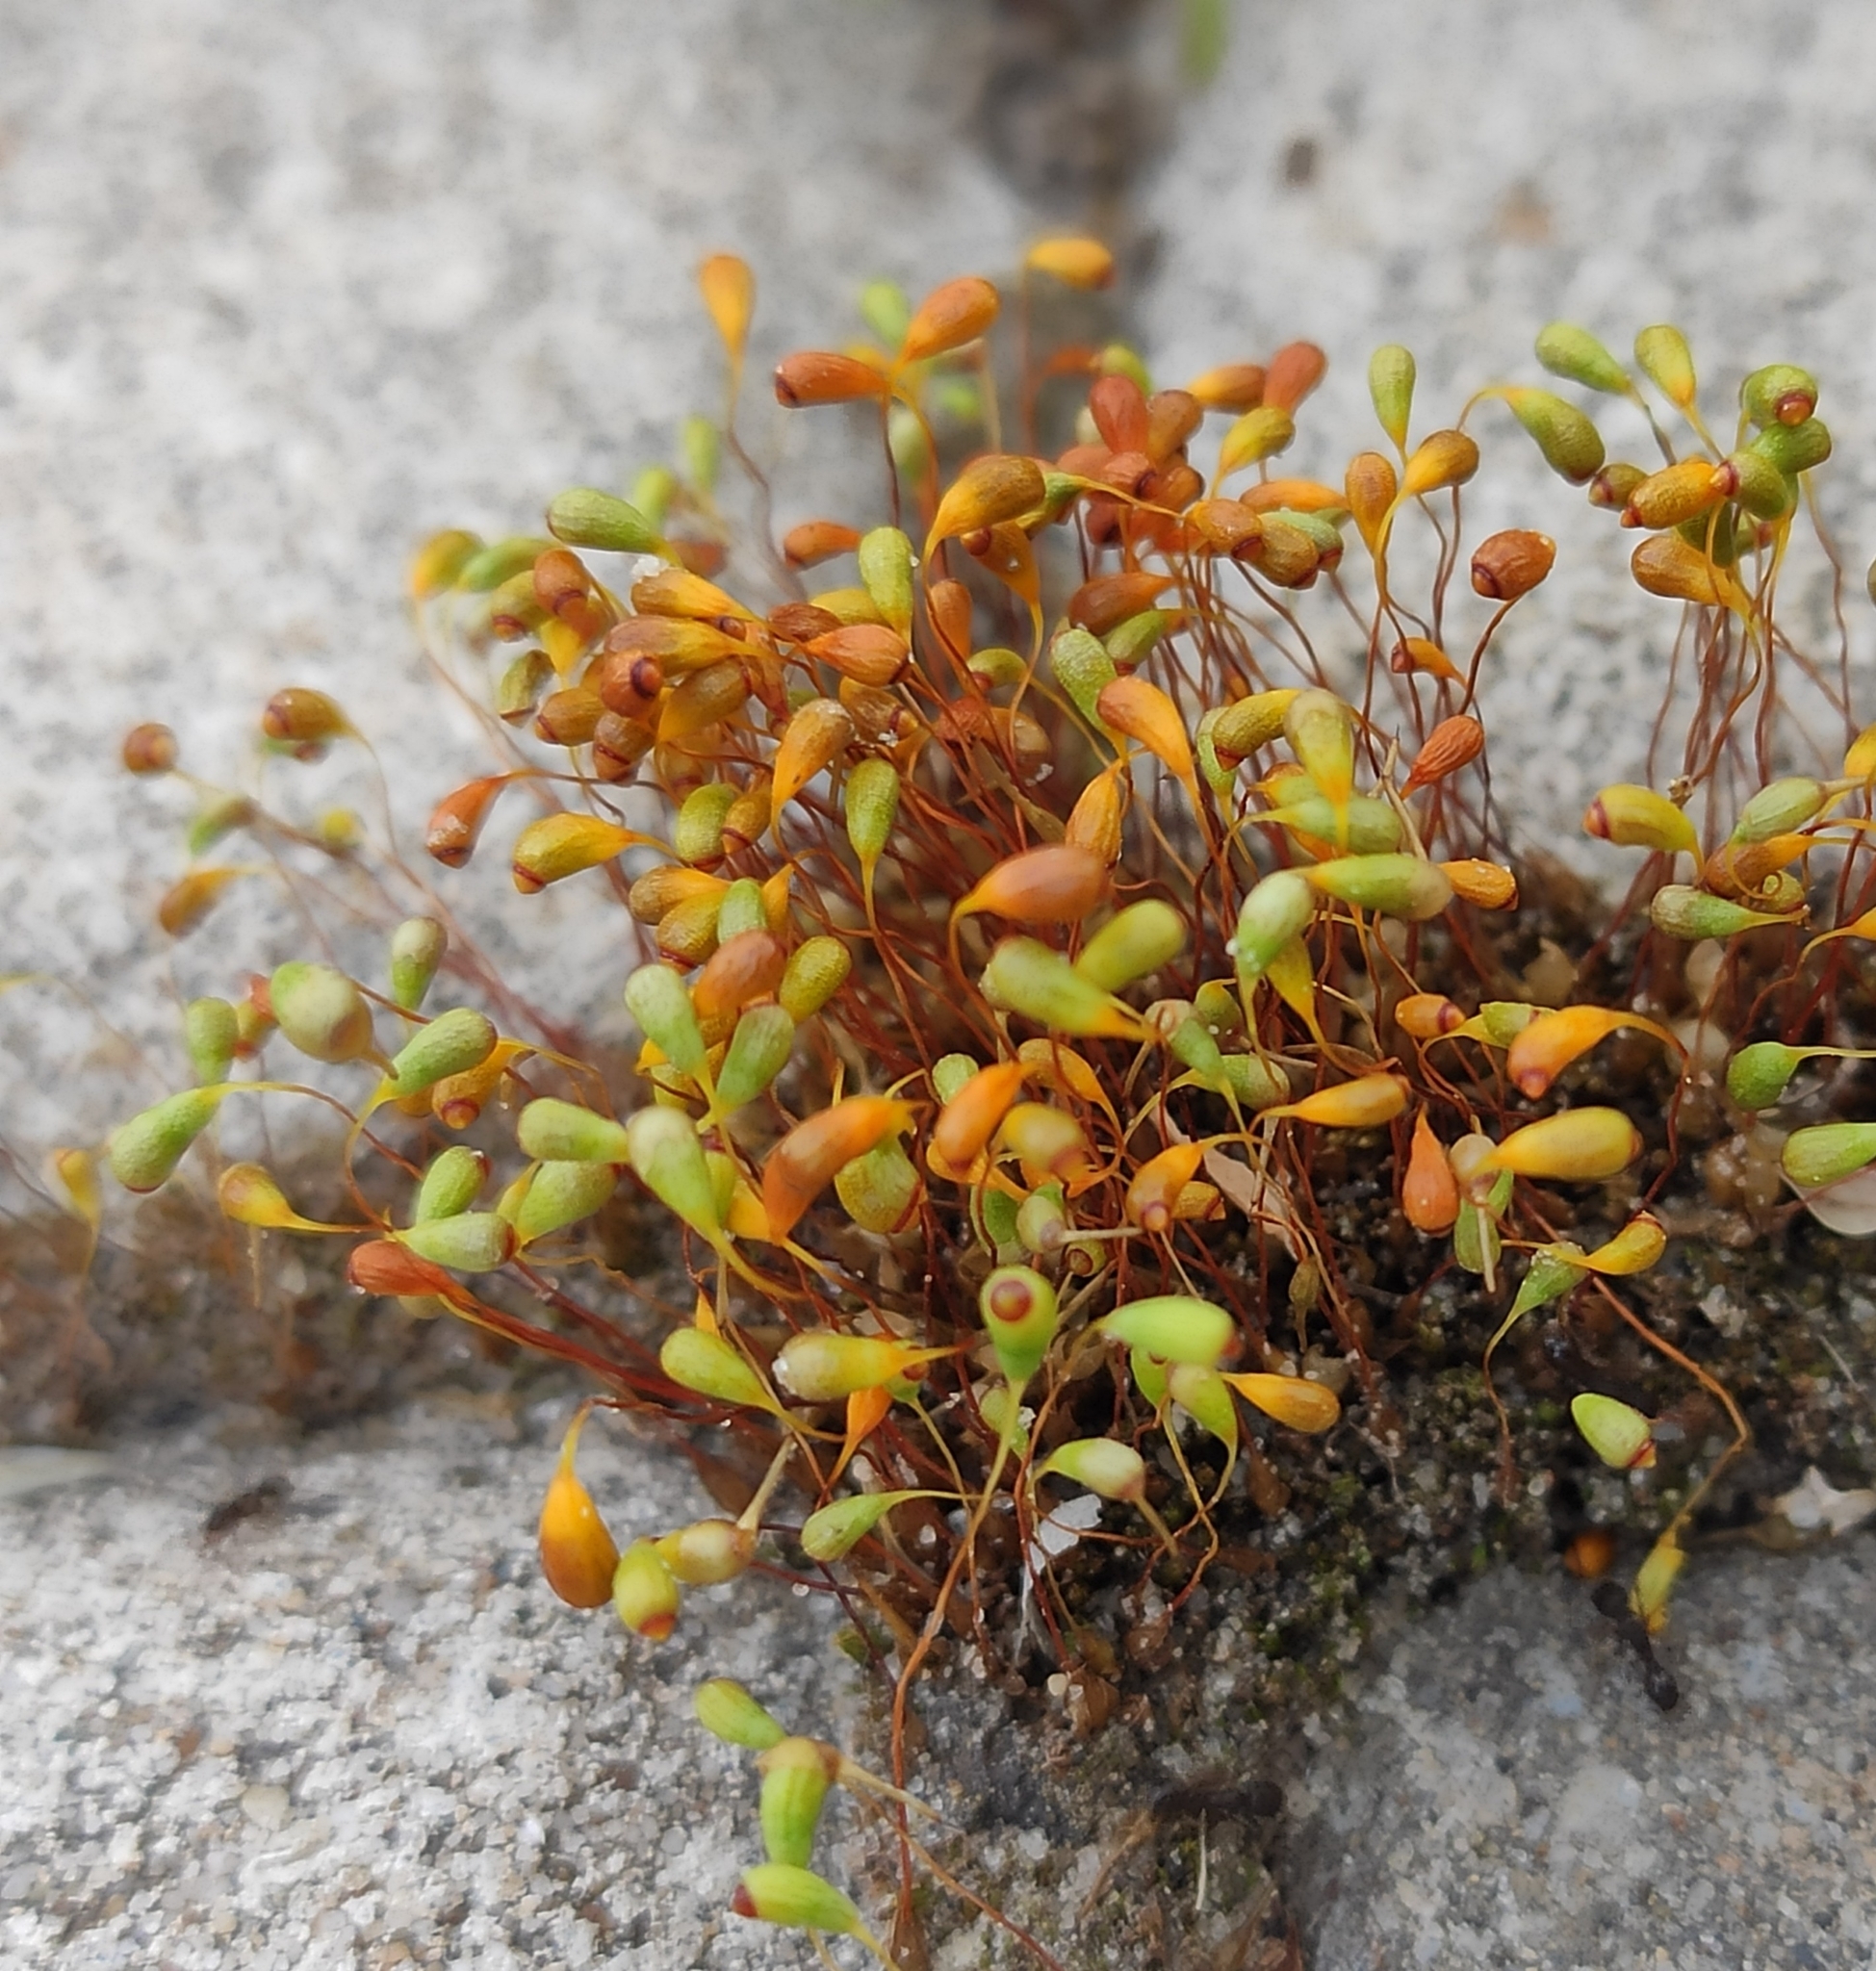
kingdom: Plantae
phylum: Bryophyta
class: Bryopsida
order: Funariales
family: Funariaceae
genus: Funaria
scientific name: Funaria hygrometrica
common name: Common cord moss
